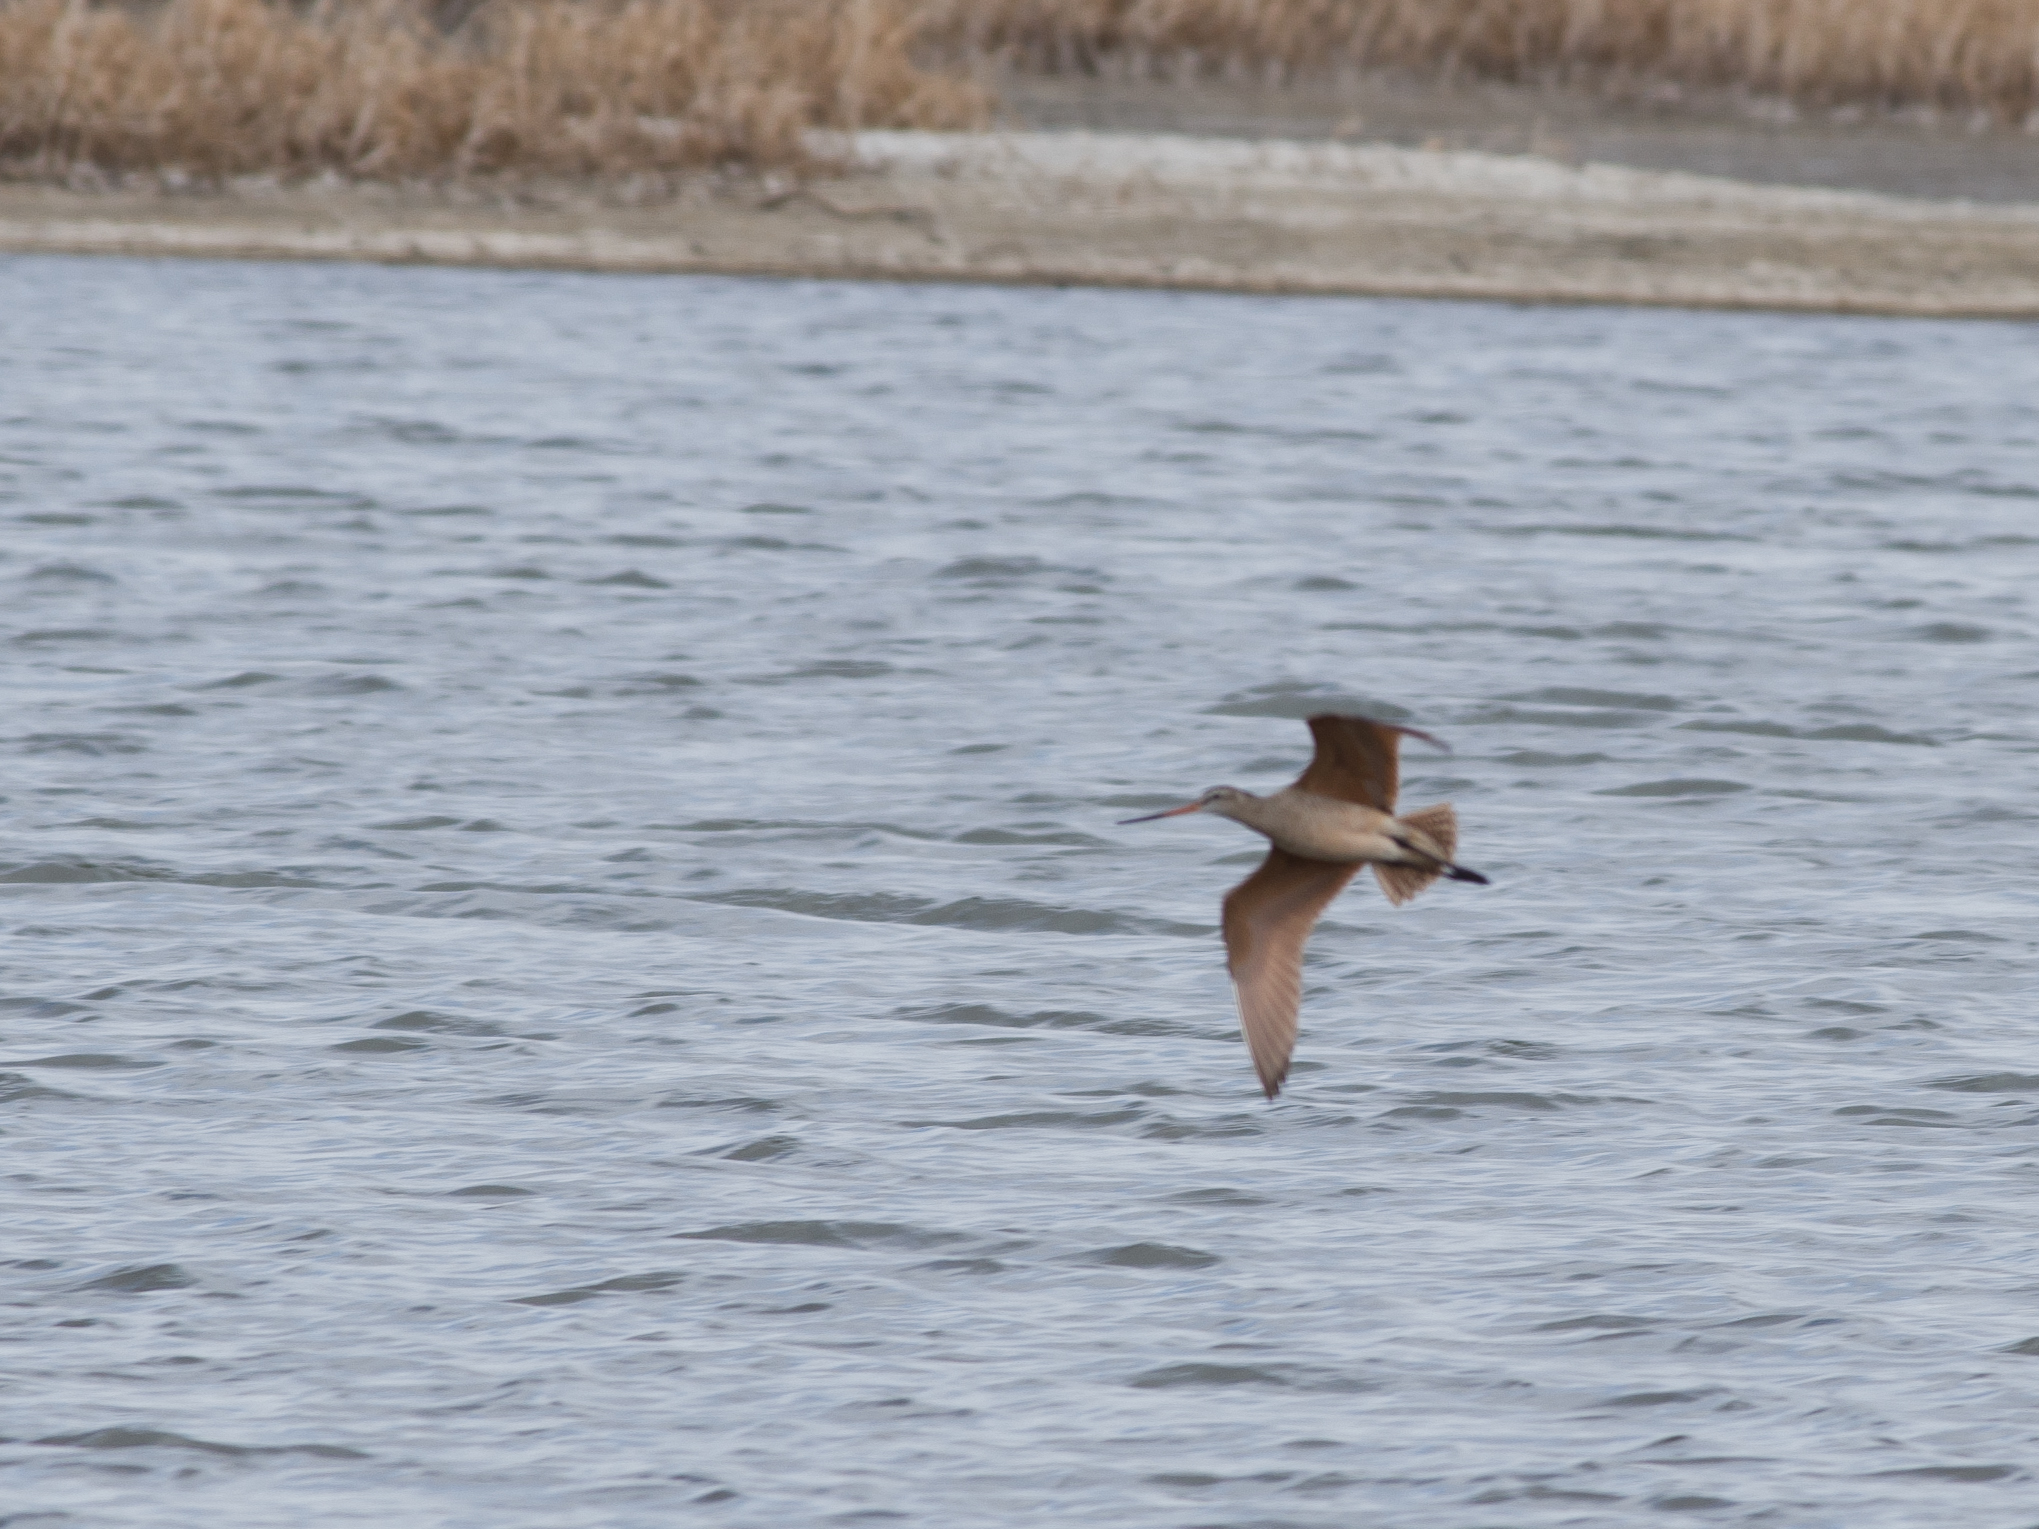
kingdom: Animalia
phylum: Chordata
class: Aves
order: Charadriiformes
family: Scolopacidae
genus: Limosa
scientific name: Limosa fedoa
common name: Marbled godwit
